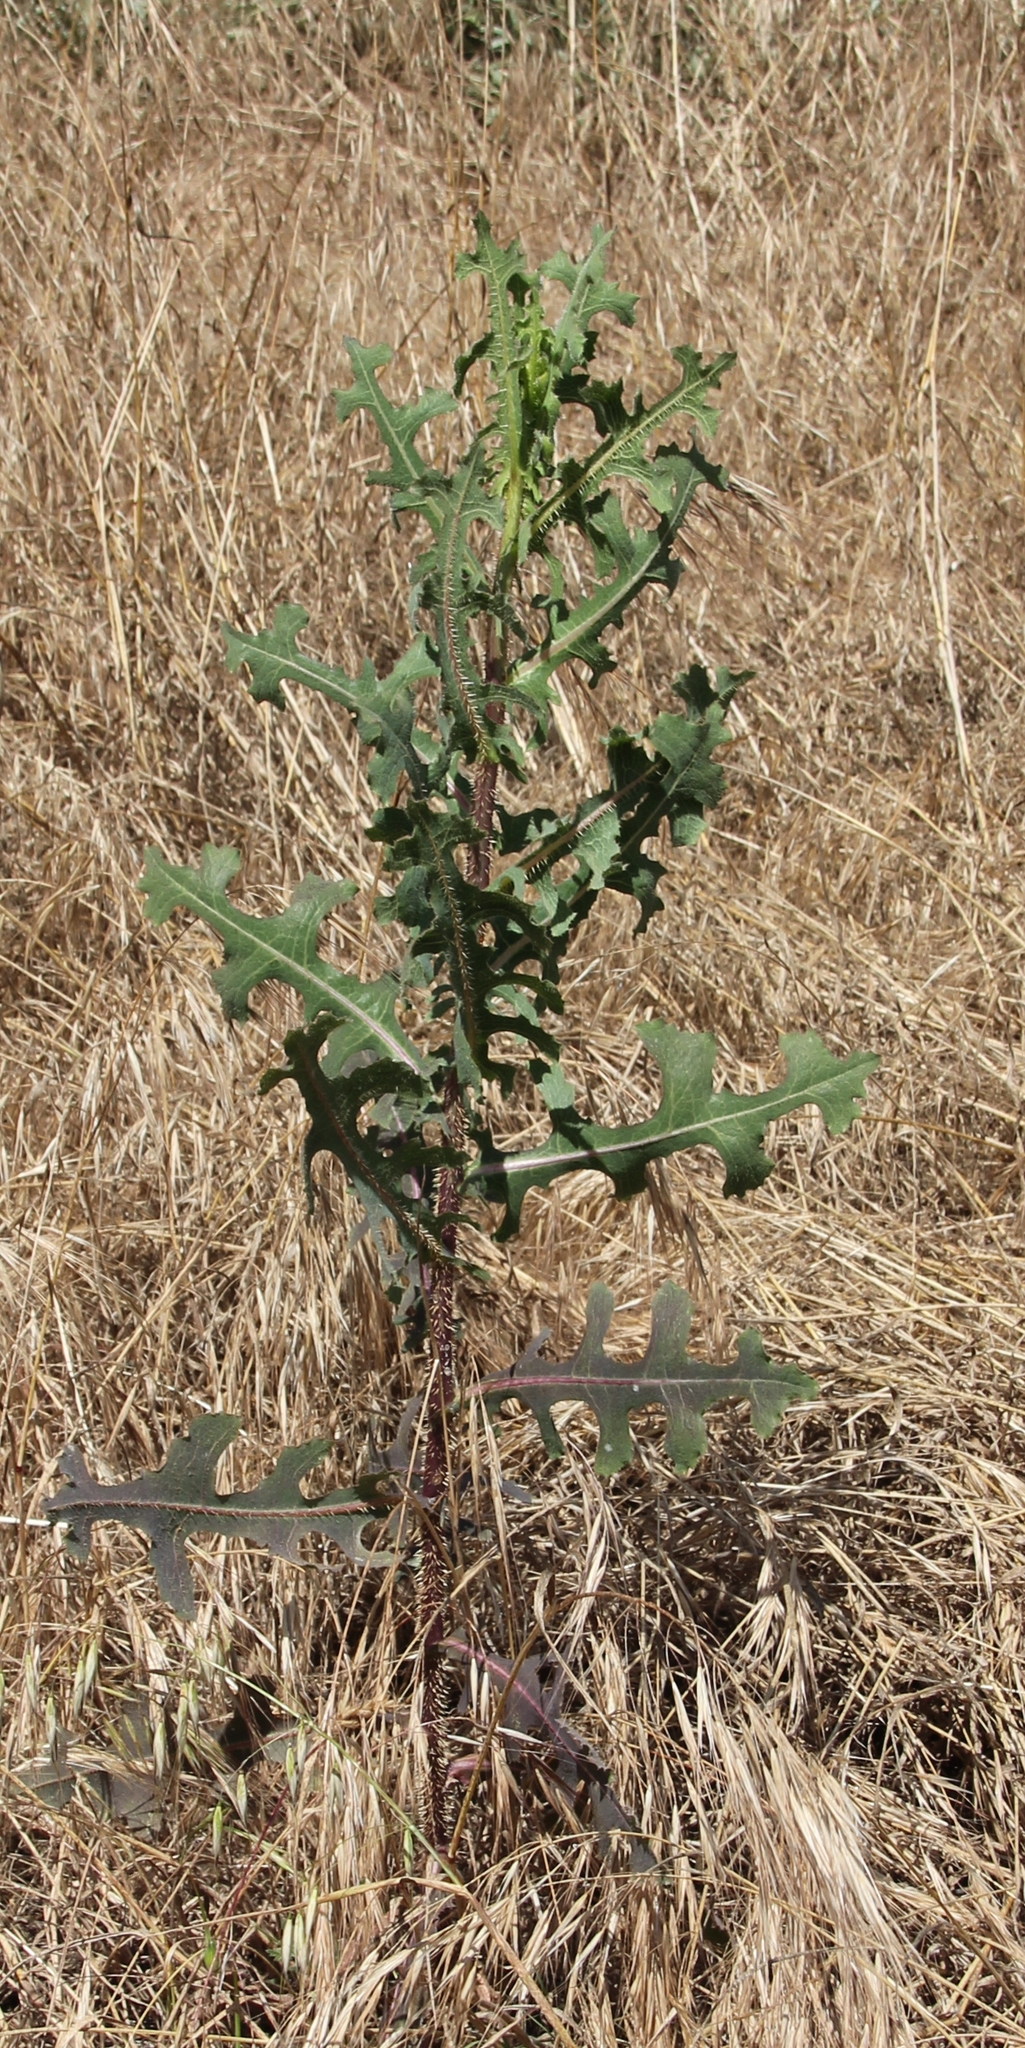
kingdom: Plantae
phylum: Tracheophyta
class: Magnoliopsida
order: Asterales
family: Asteraceae
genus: Lactuca
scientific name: Lactuca serriola
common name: Prickly lettuce
